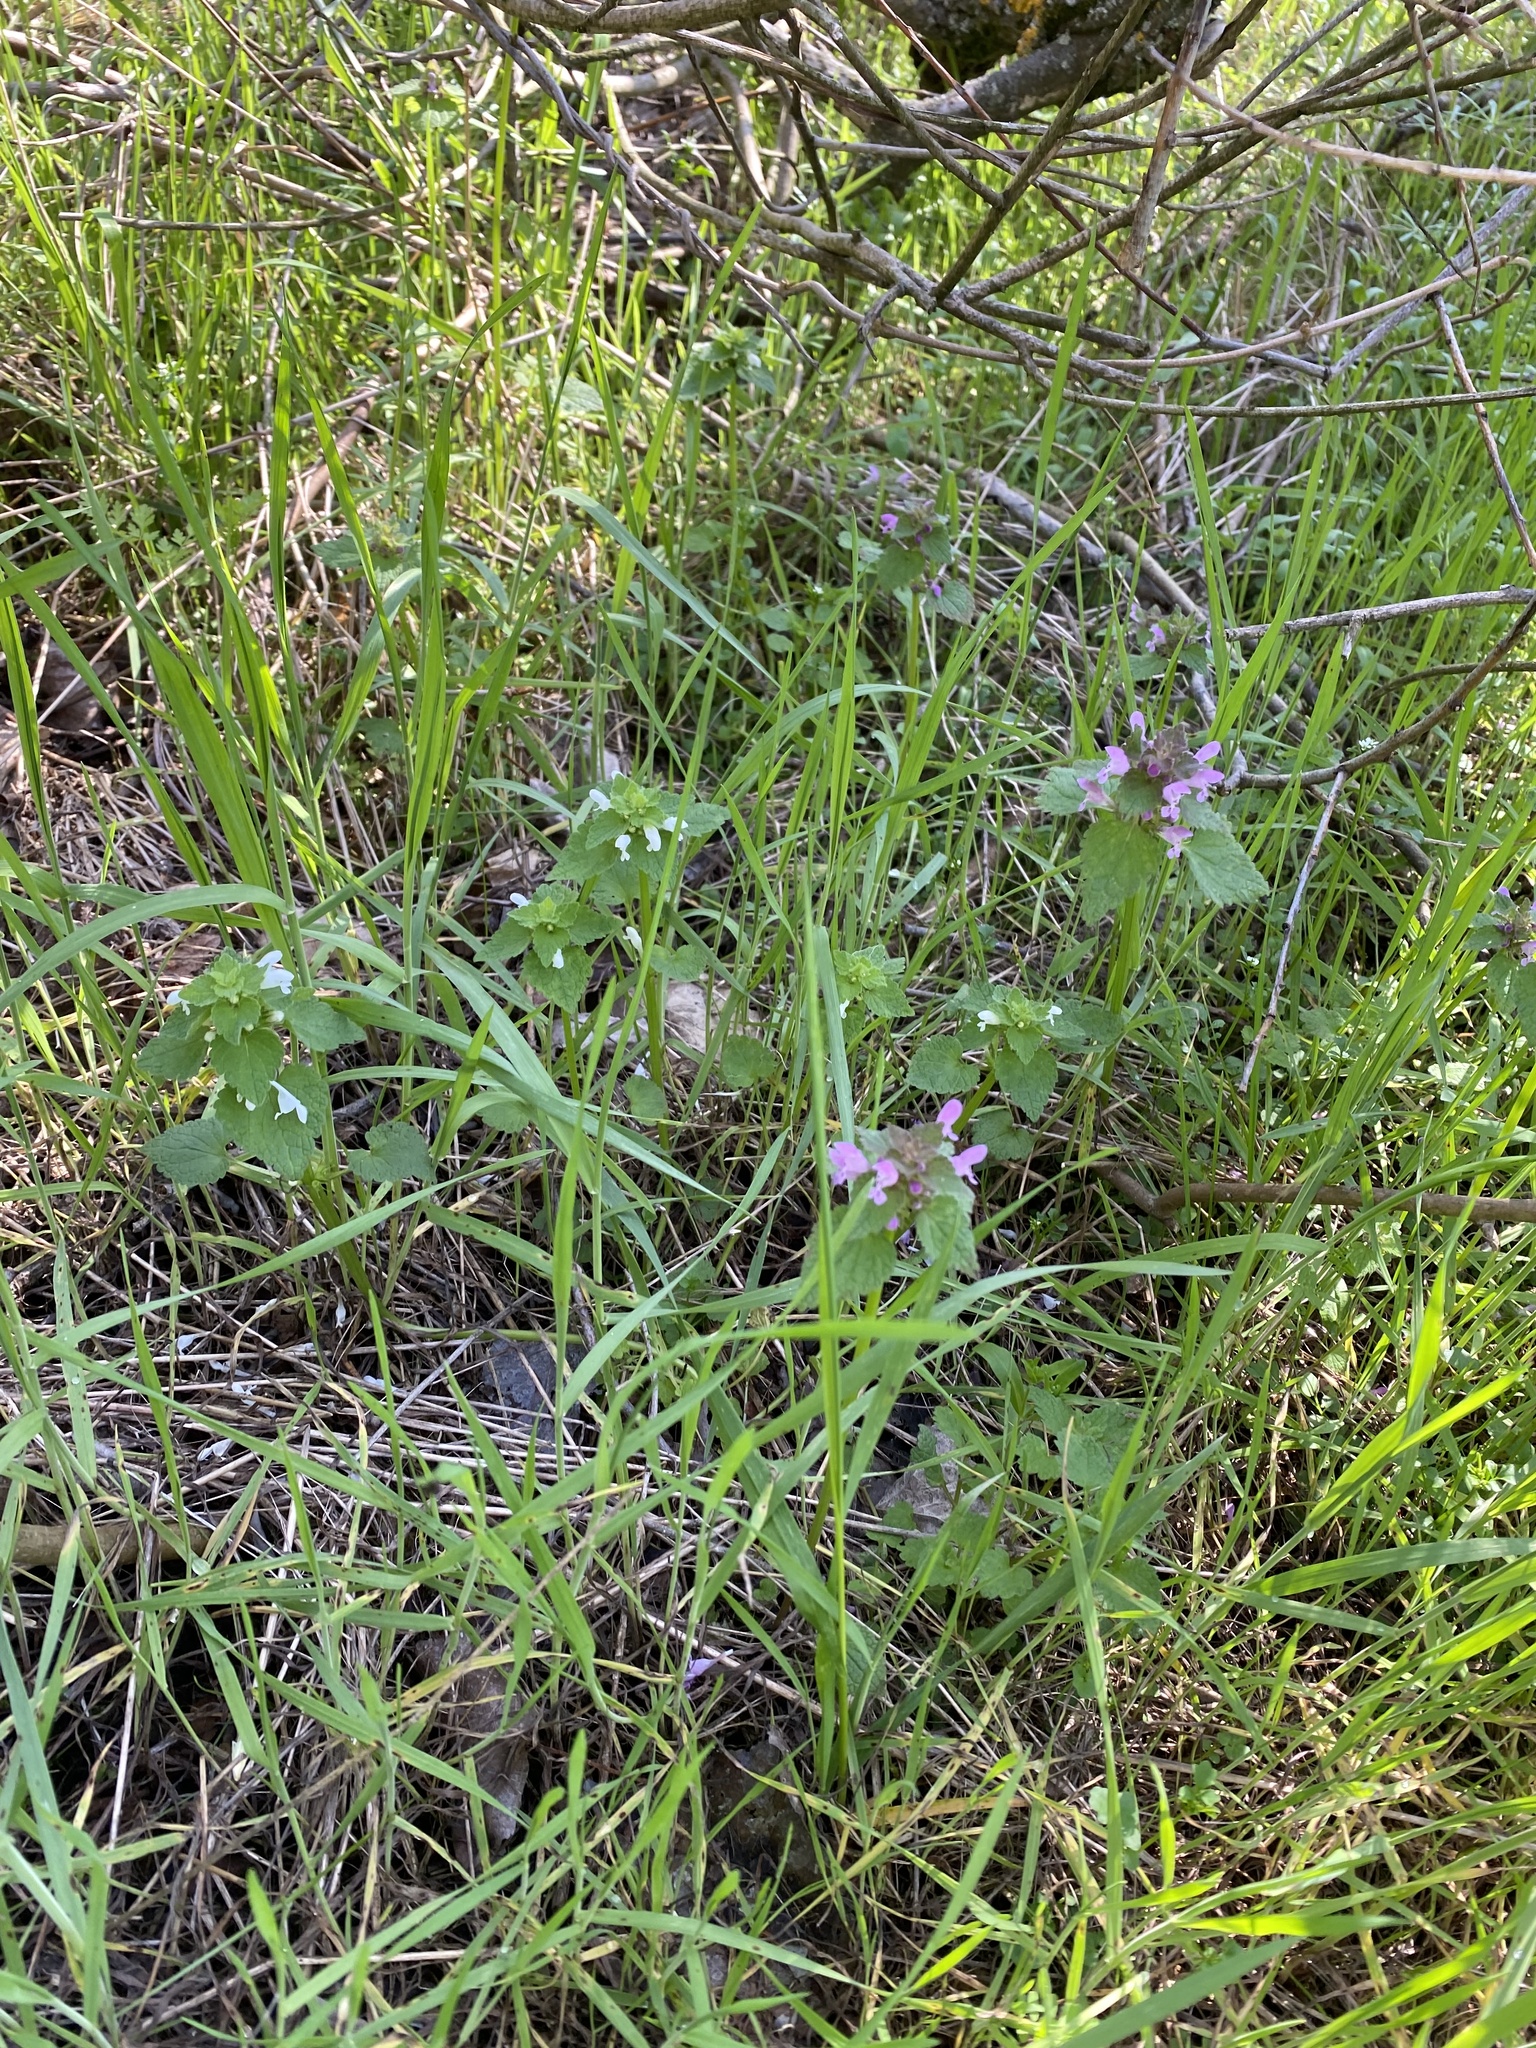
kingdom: Plantae
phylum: Tracheophyta
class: Magnoliopsida
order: Lamiales
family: Lamiaceae
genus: Lamium
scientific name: Lamium purpureum
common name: Red dead-nettle
